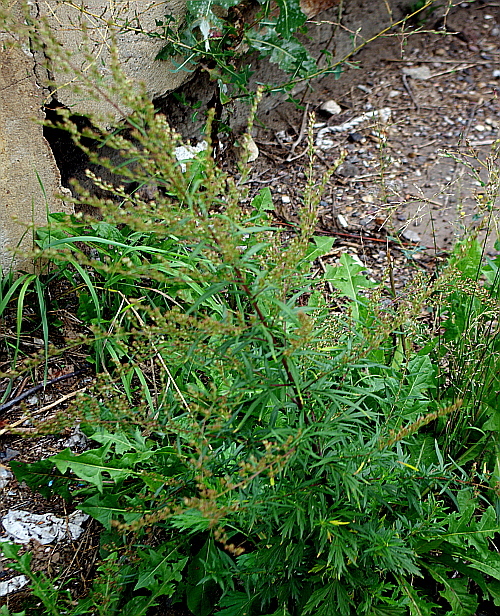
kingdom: Plantae
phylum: Tracheophyta
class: Magnoliopsida
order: Asterales
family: Asteraceae
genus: Artemisia
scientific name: Artemisia vulgaris
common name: Mugwort
